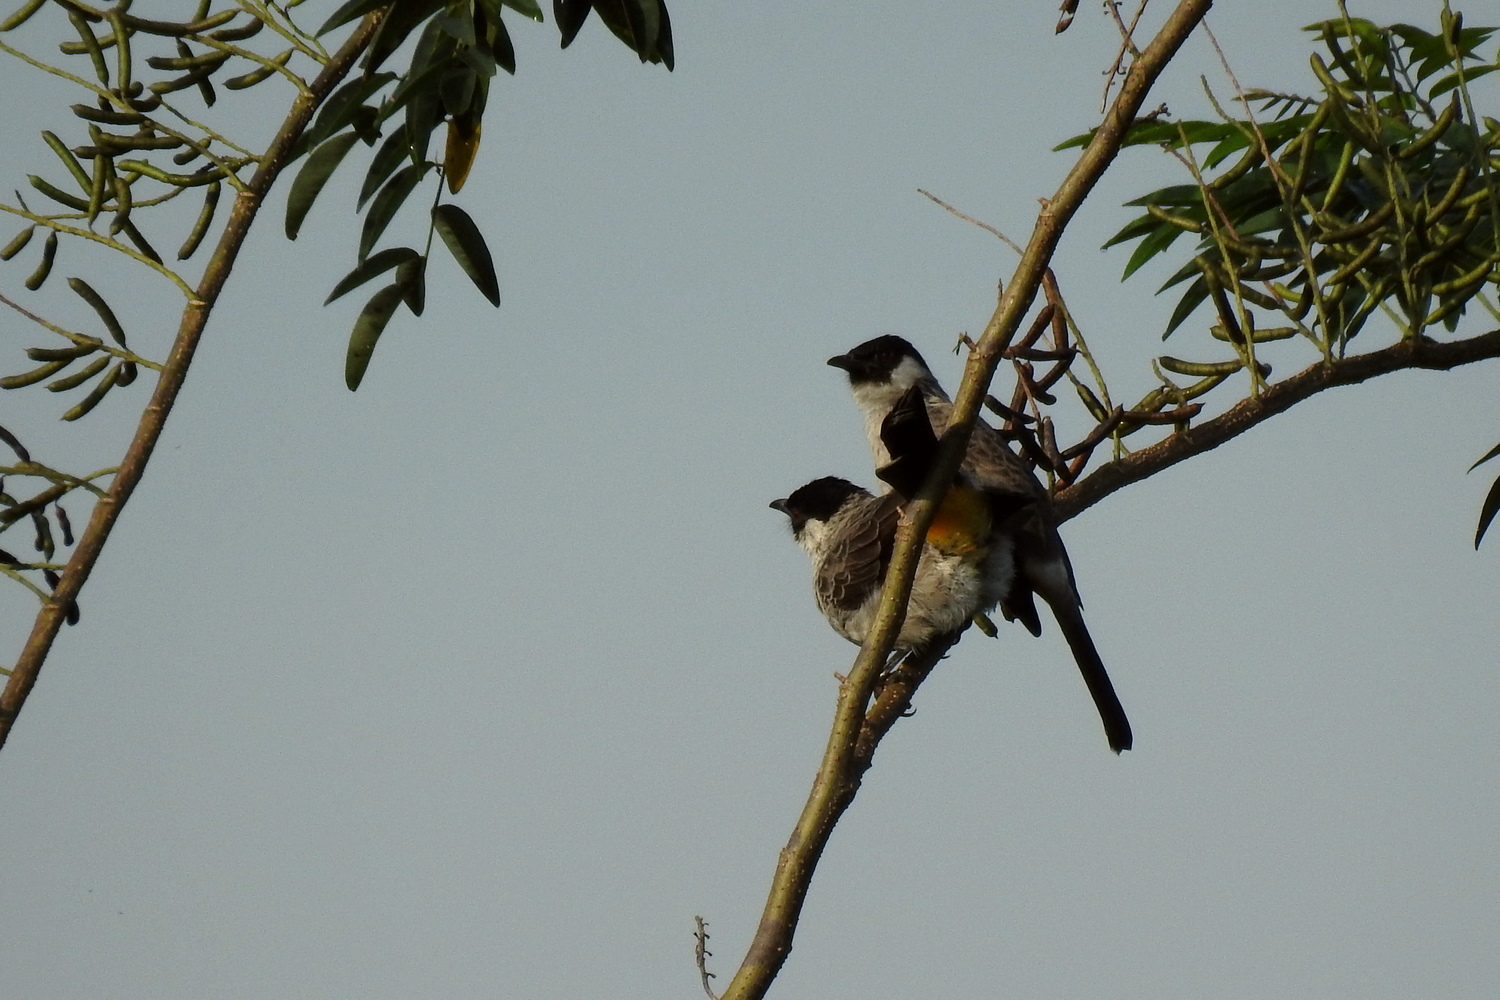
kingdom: Animalia
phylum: Chordata
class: Aves
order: Passeriformes
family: Pycnonotidae
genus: Pycnonotus
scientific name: Pycnonotus aurigaster
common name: Sooty-headed bulbul
